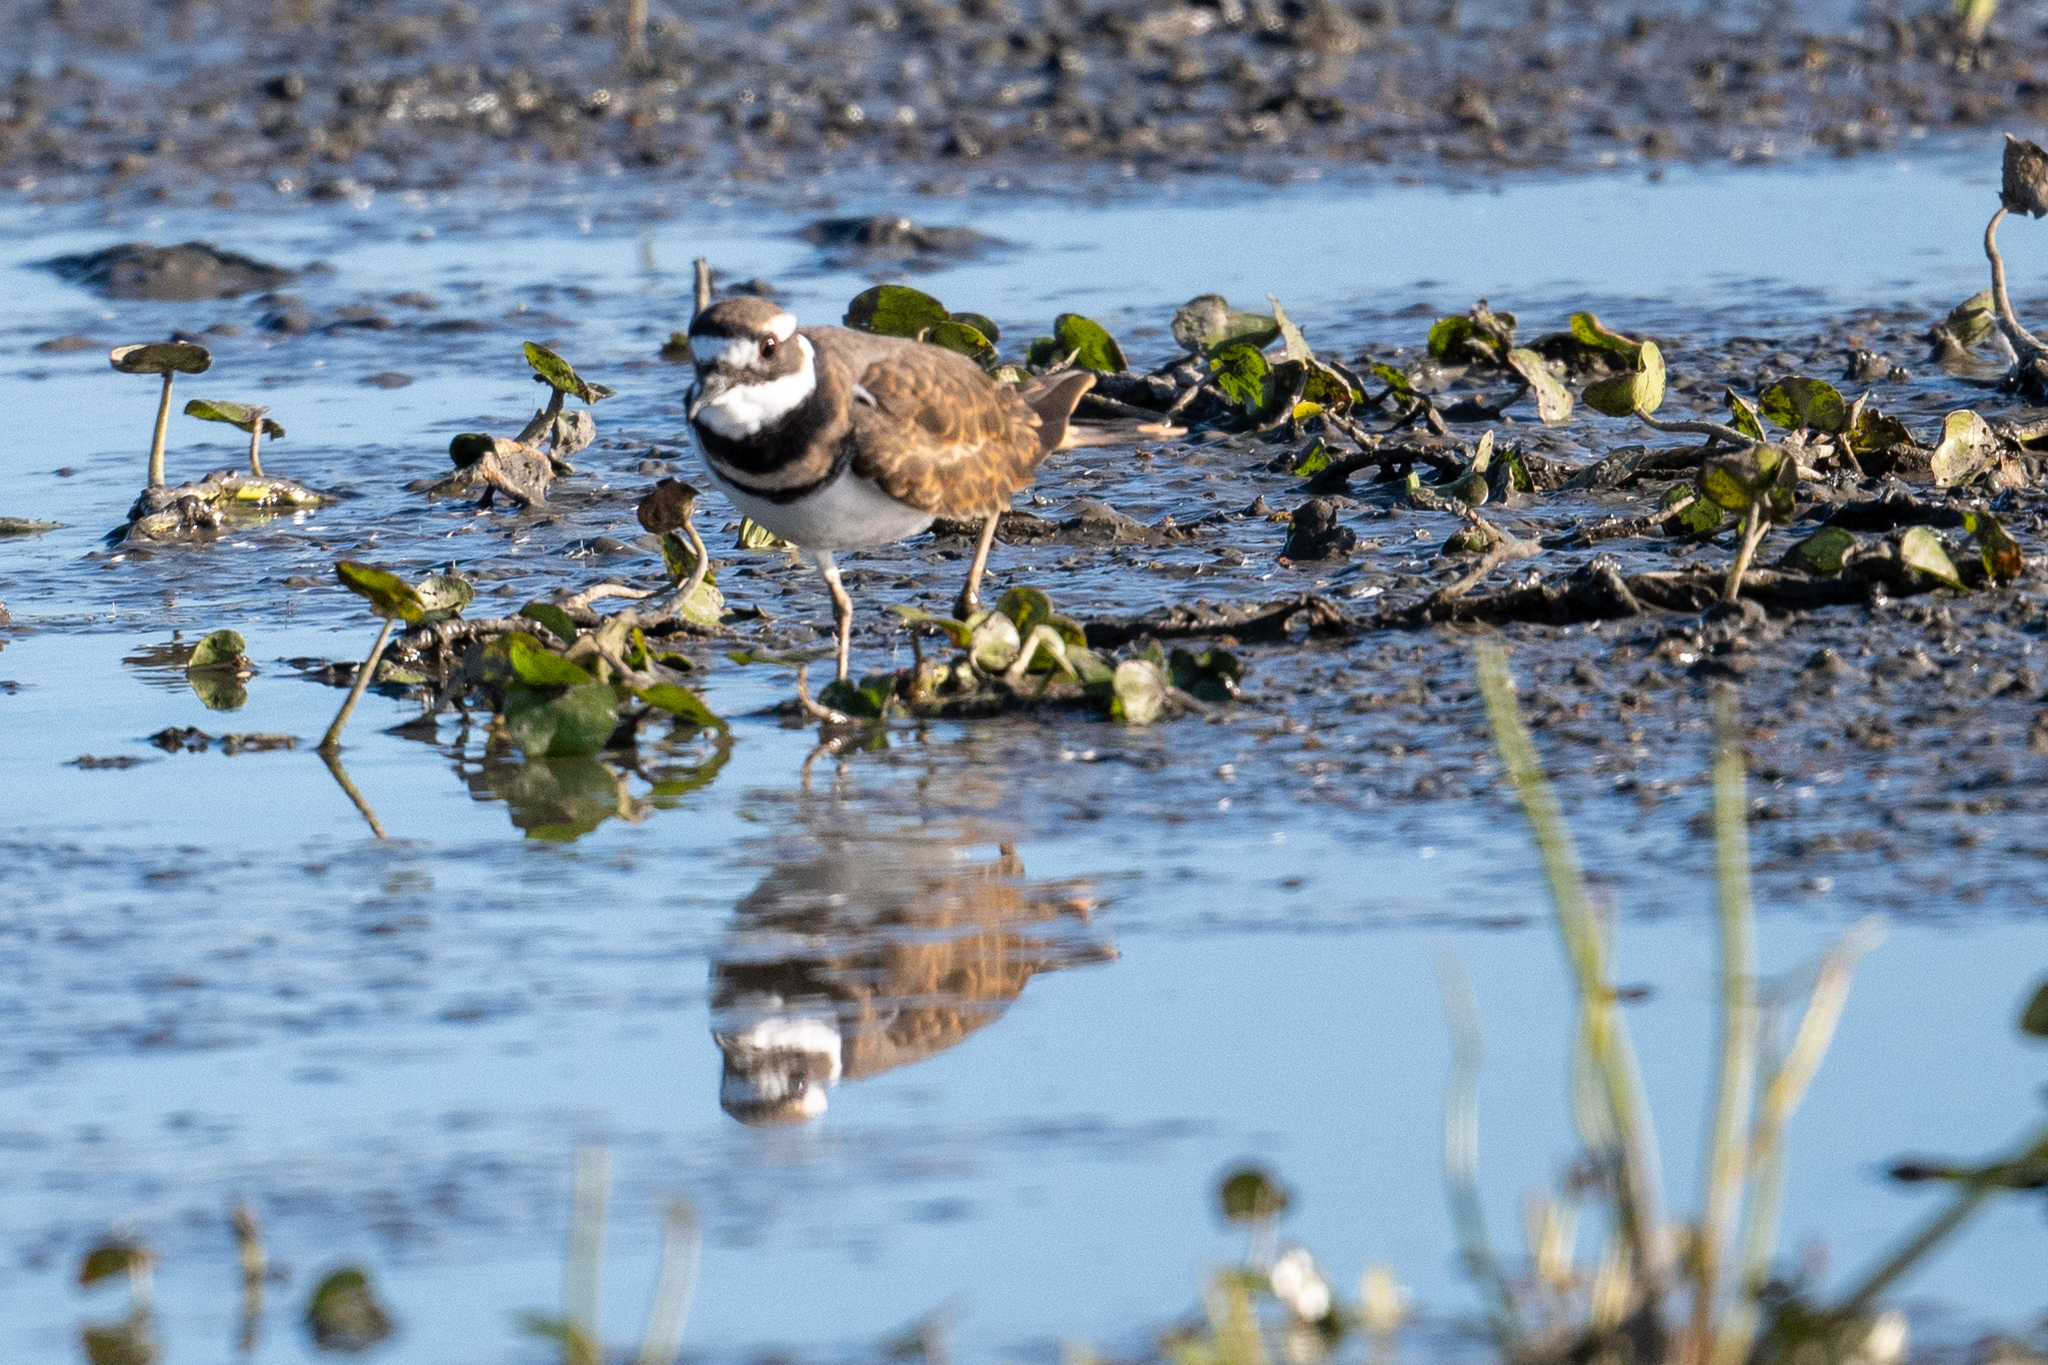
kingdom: Animalia
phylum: Chordata
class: Aves
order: Charadriiformes
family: Charadriidae
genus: Charadrius
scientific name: Charadrius vociferus
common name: Killdeer
